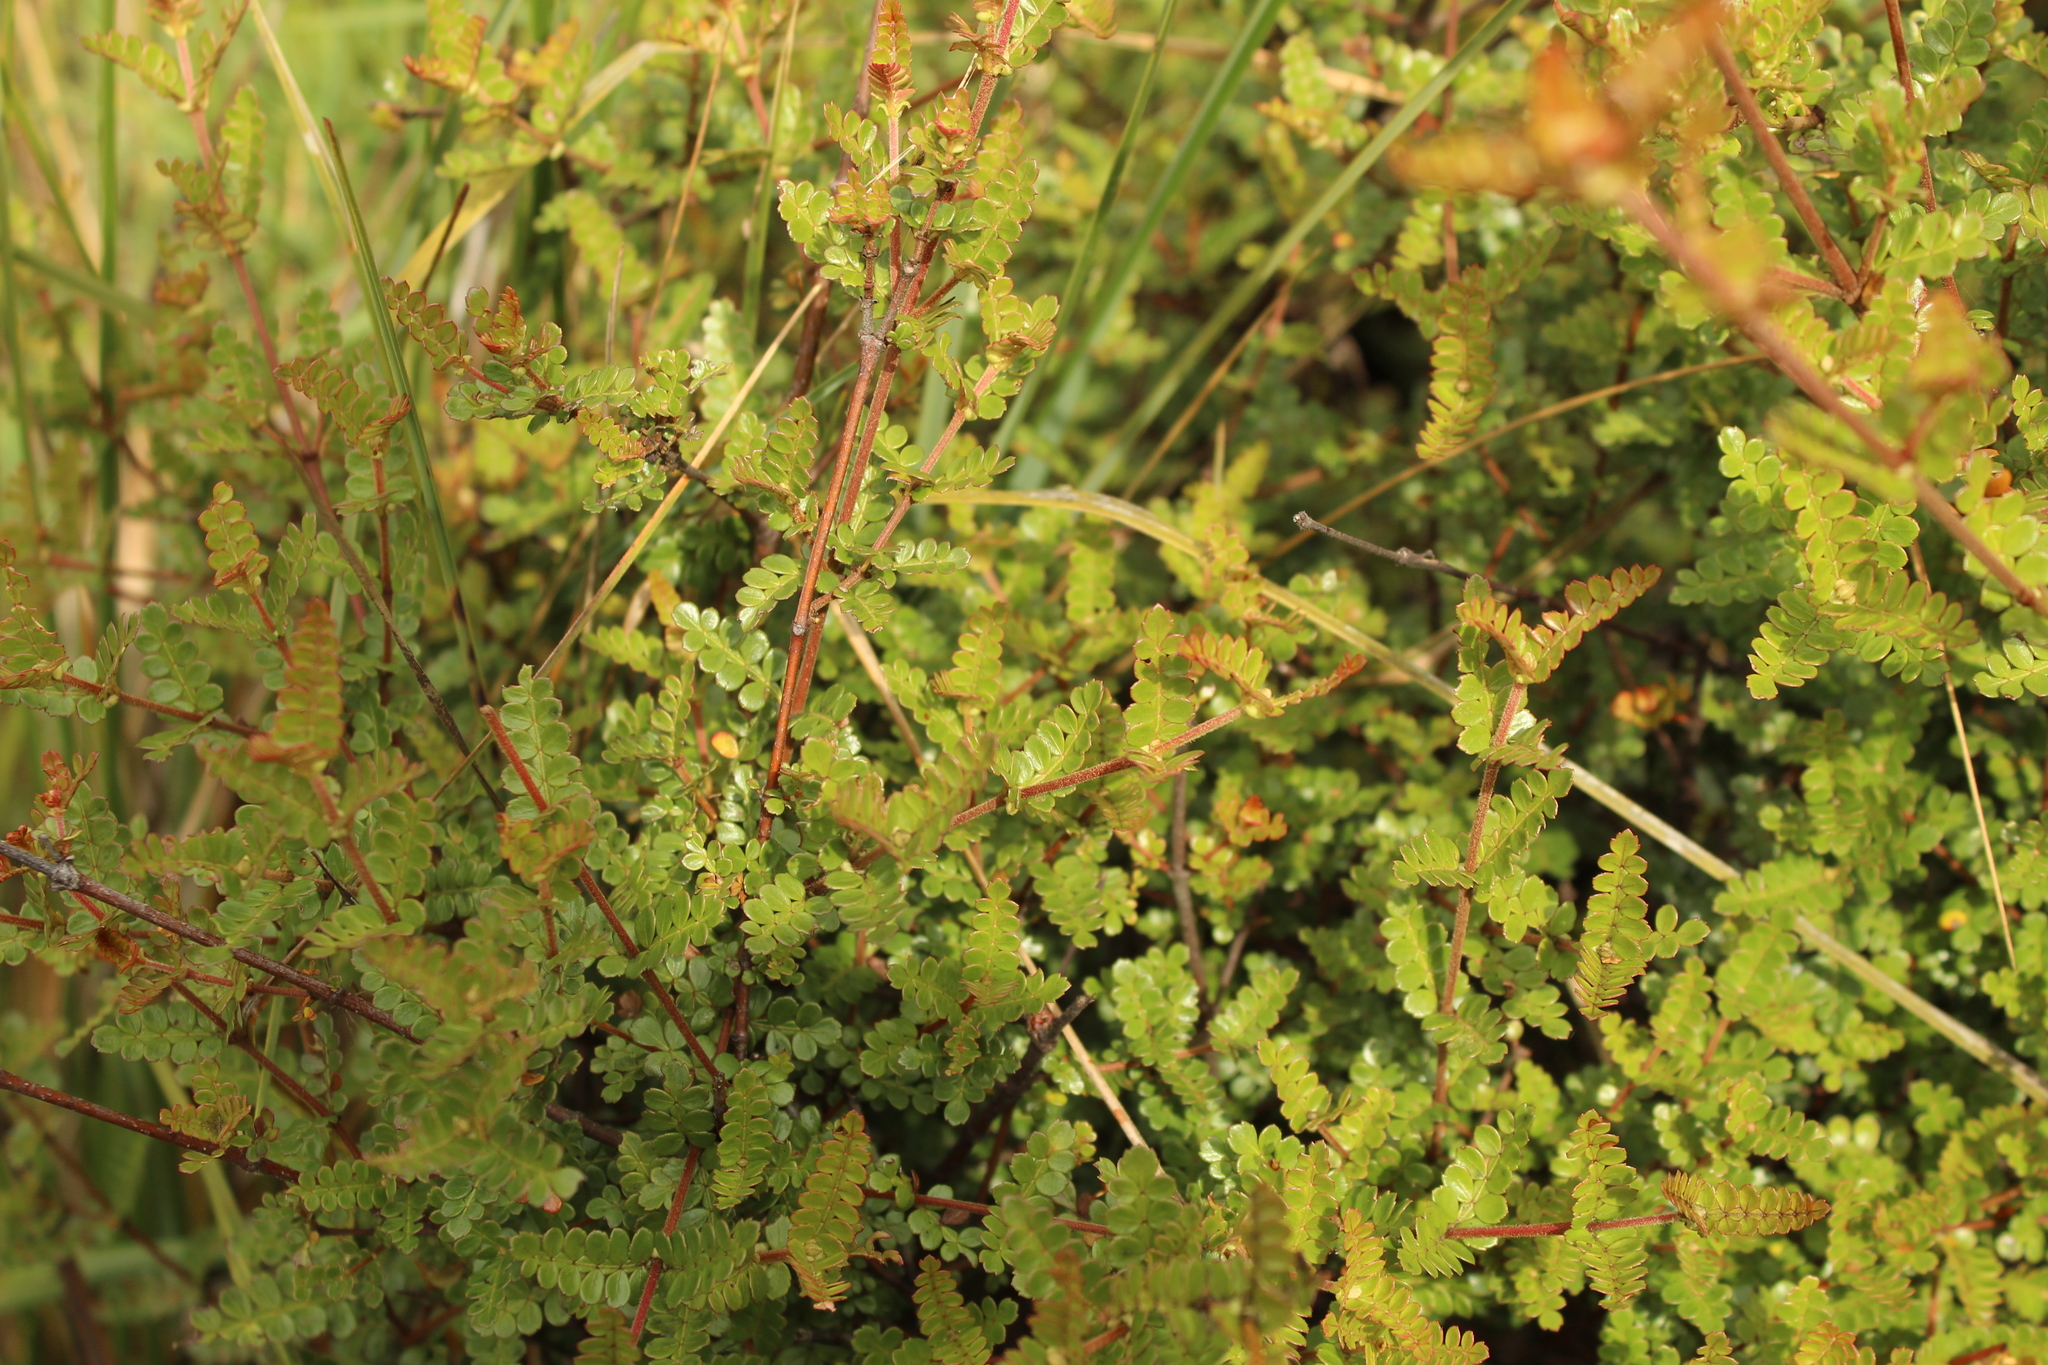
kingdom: Plantae
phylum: Tracheophyta
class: Magnoliopsida
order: Oxalidales
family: Cunoniaceae
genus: Weinmannia
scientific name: Weinmannia fagaroides
